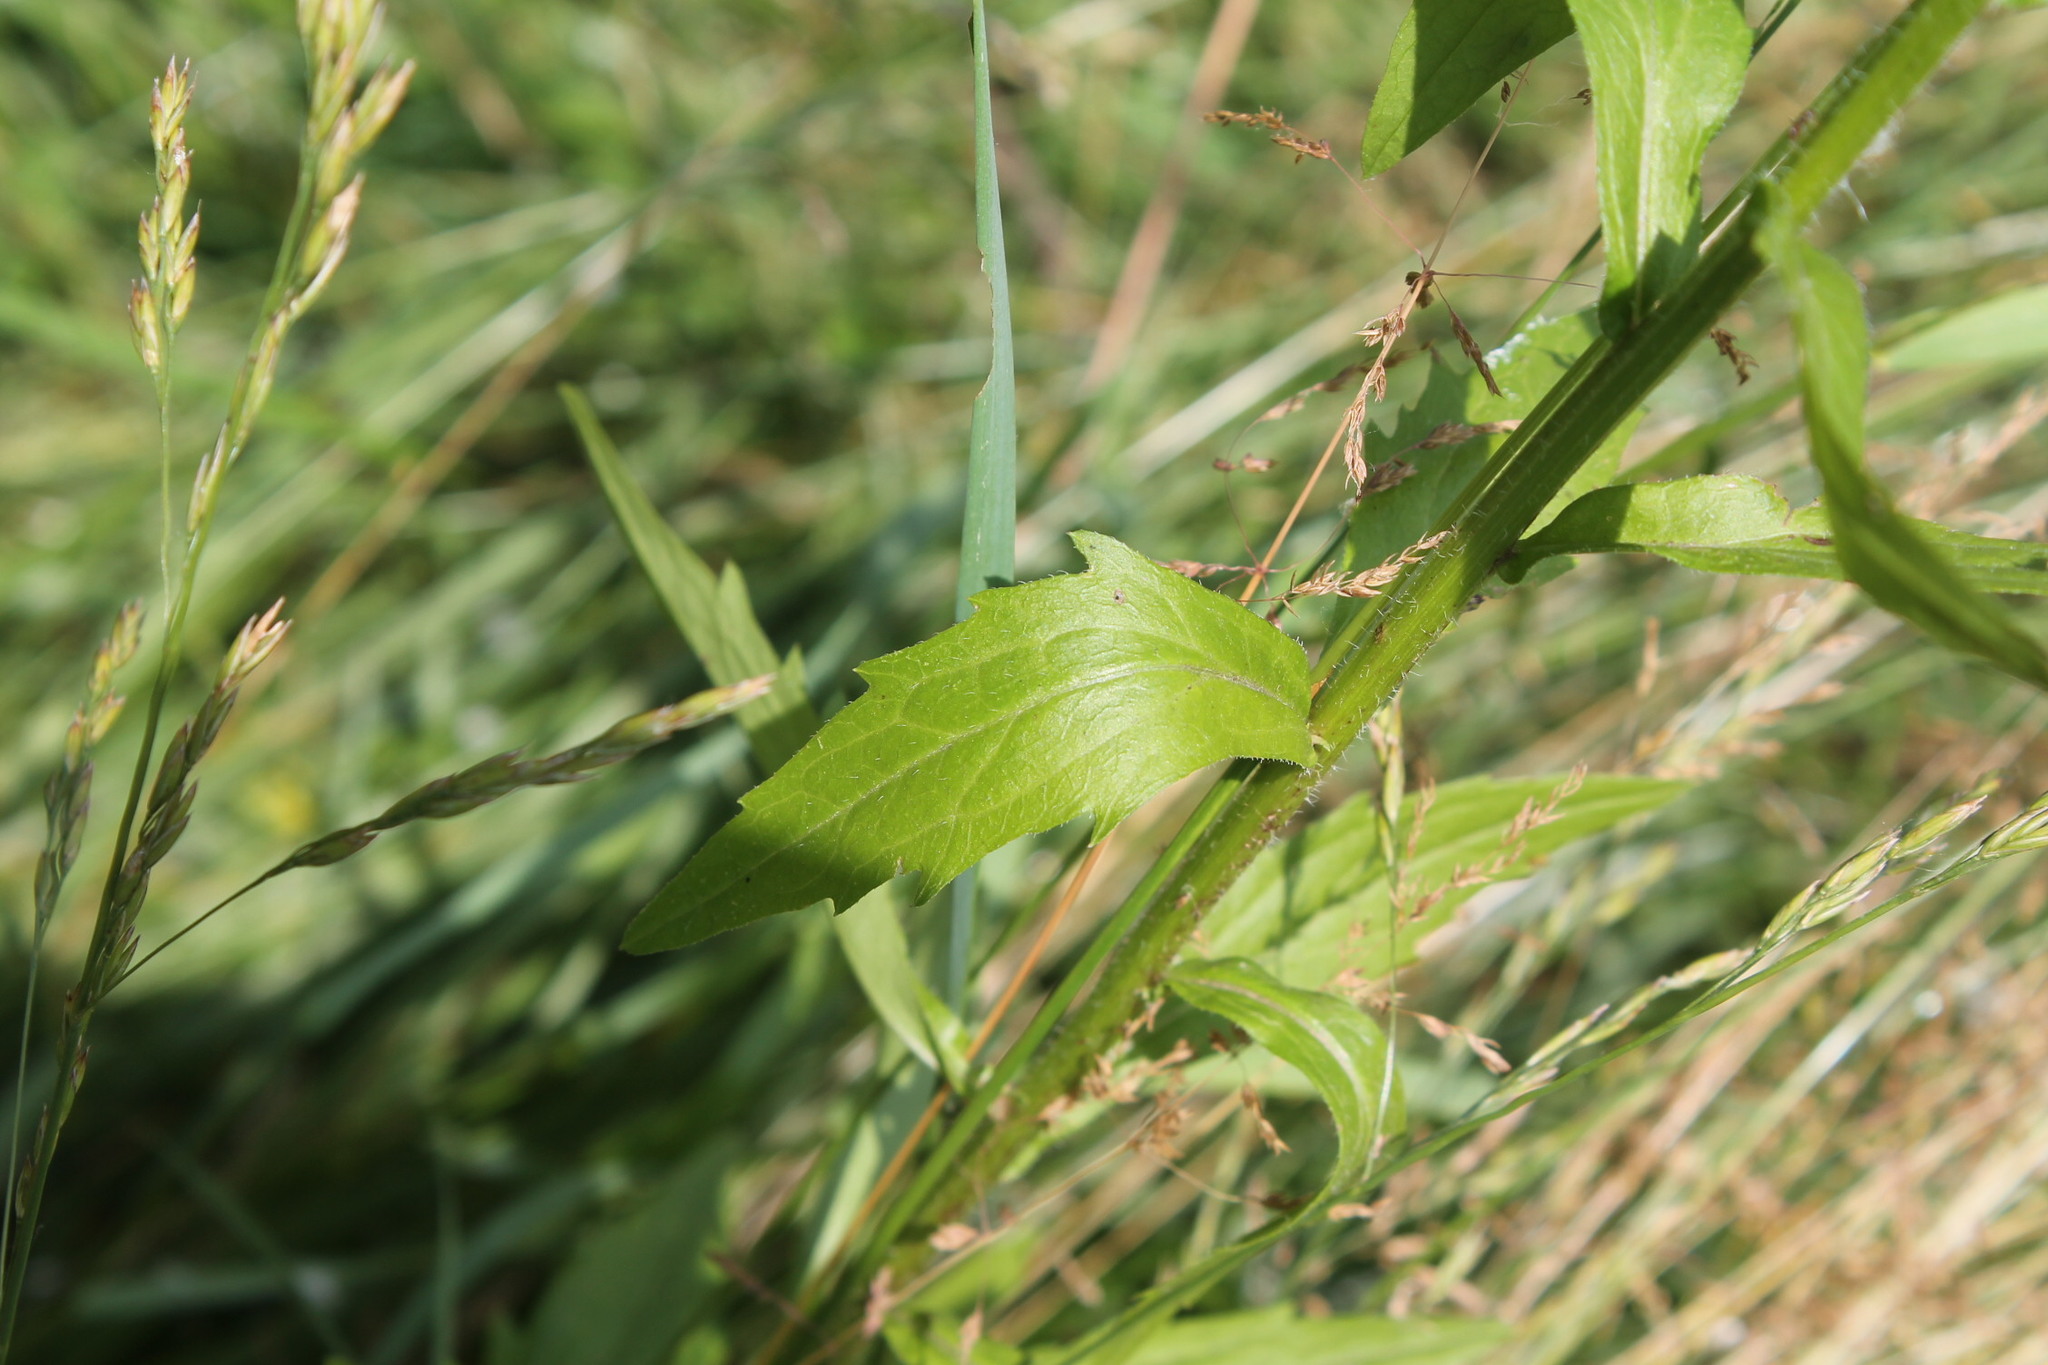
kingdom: Plantae
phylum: Tracheophyta
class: Magnoliopsida
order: Asterales
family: Asteraceae
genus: Erigeron
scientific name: Erigeron annuus
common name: Tall fleabane
